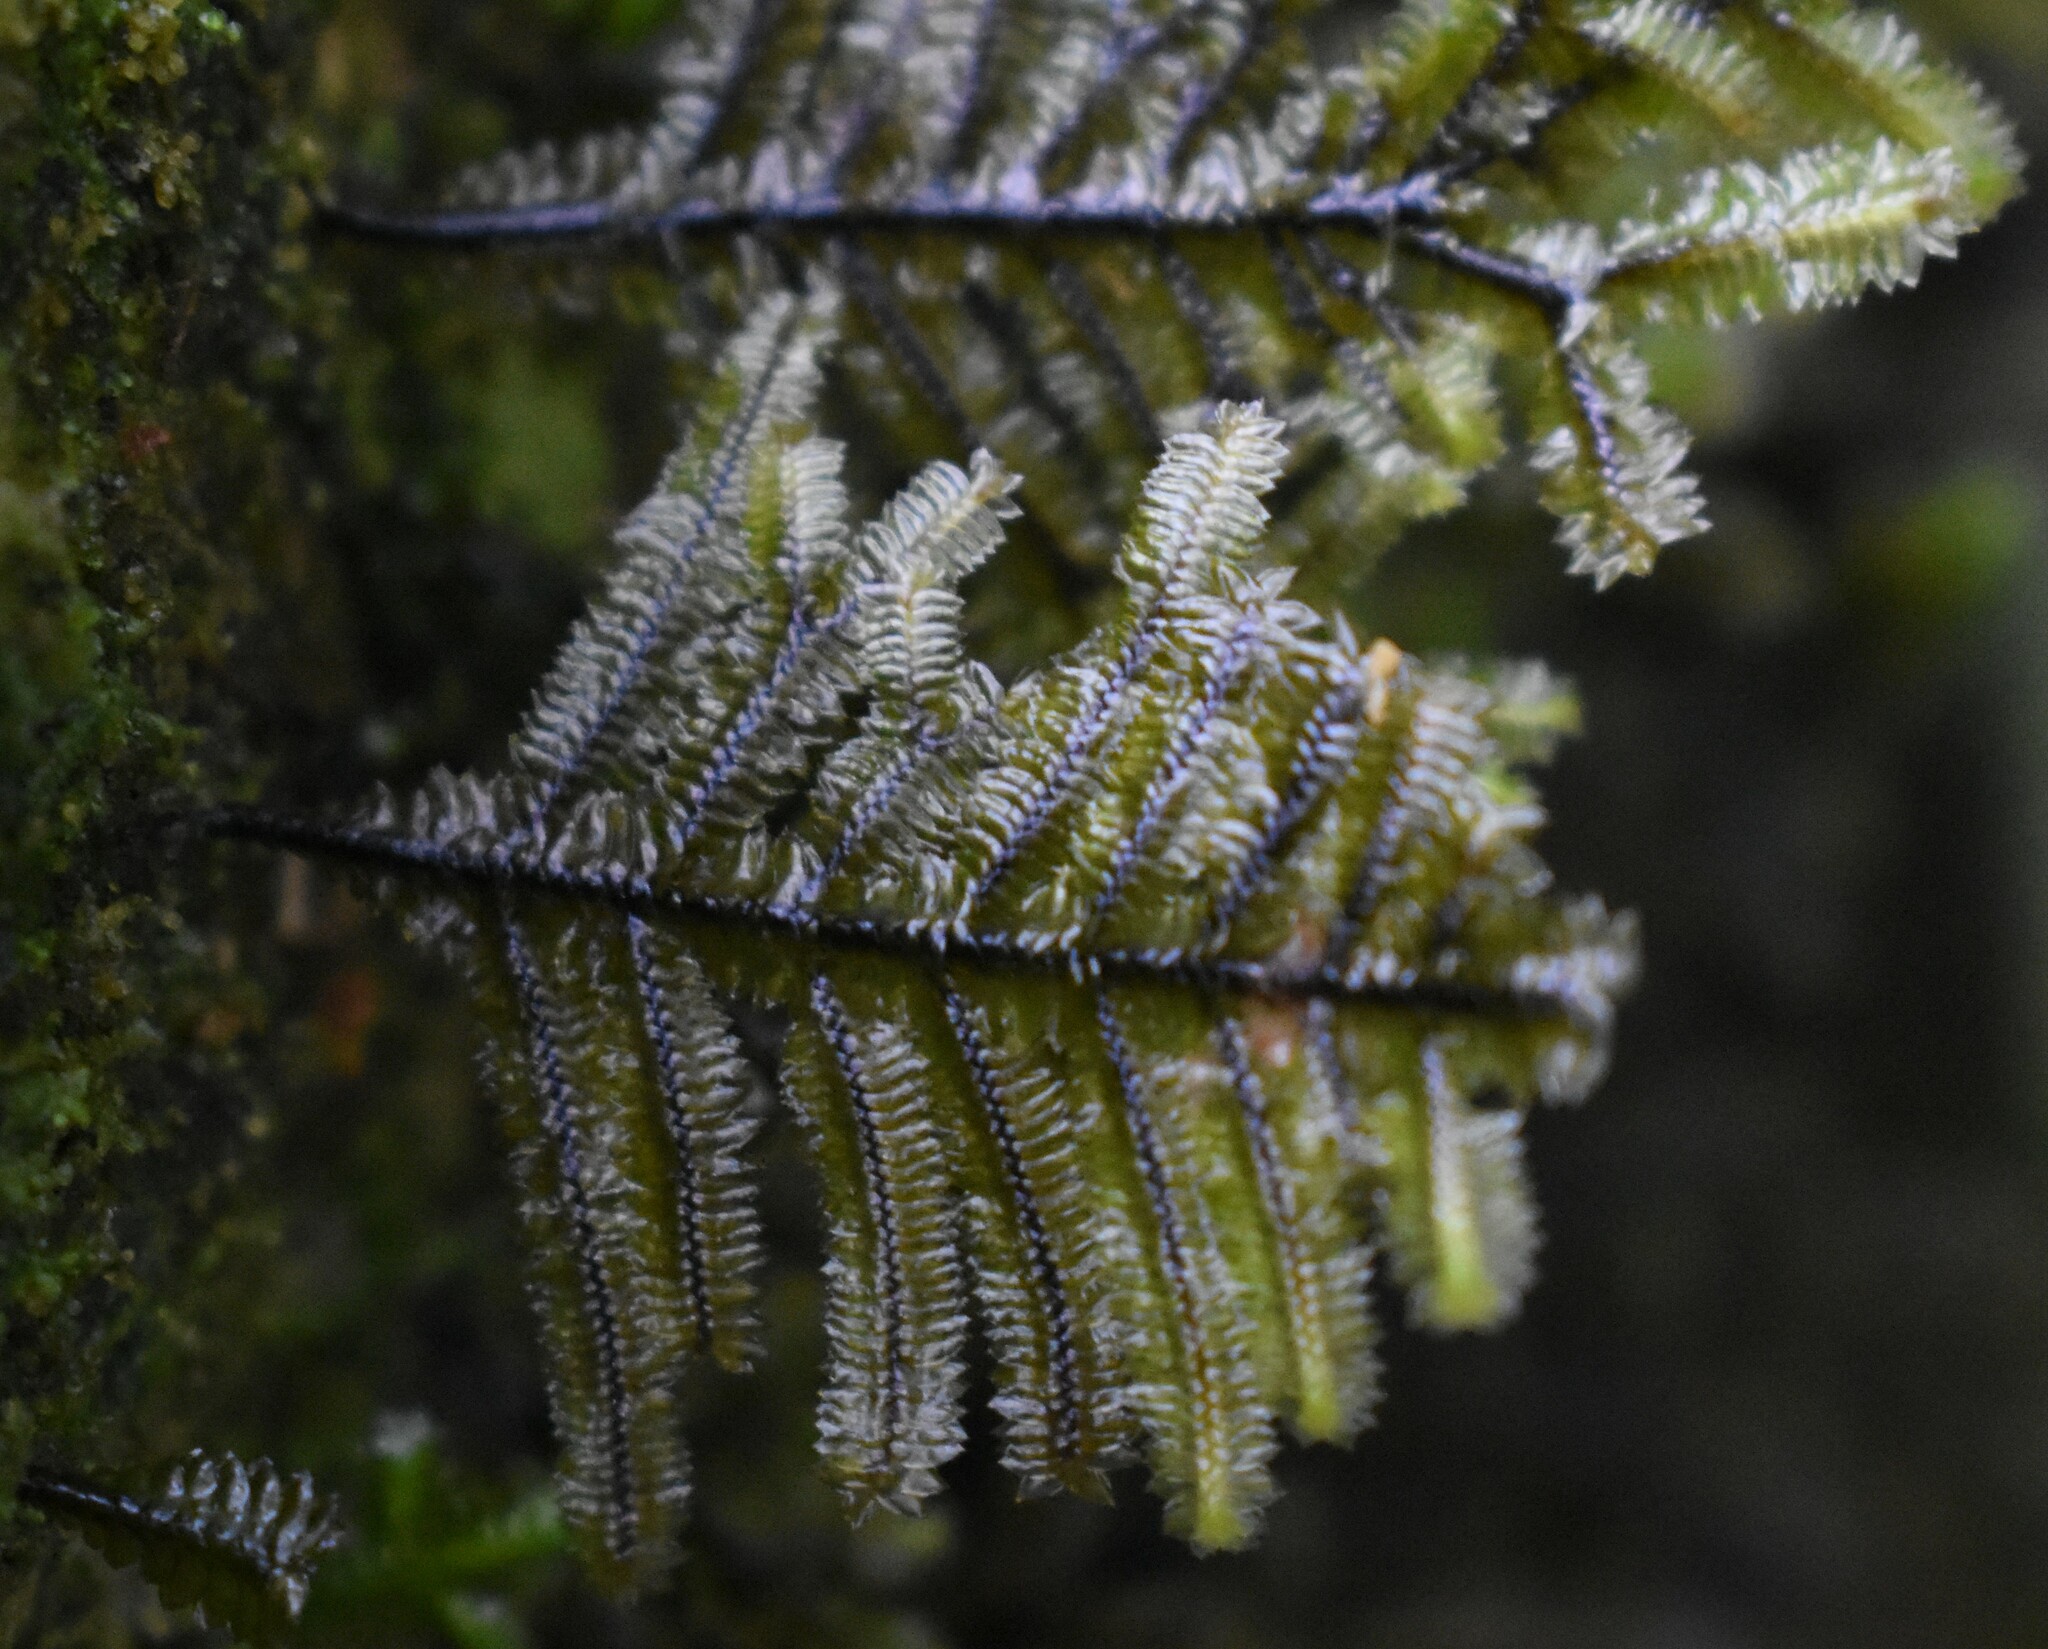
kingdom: Plantae
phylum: Marchantiophyta
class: Jungermanniopsida
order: Porellales
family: Lejeuneaceae
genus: Bryopteris
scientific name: Bryopteris filicina
